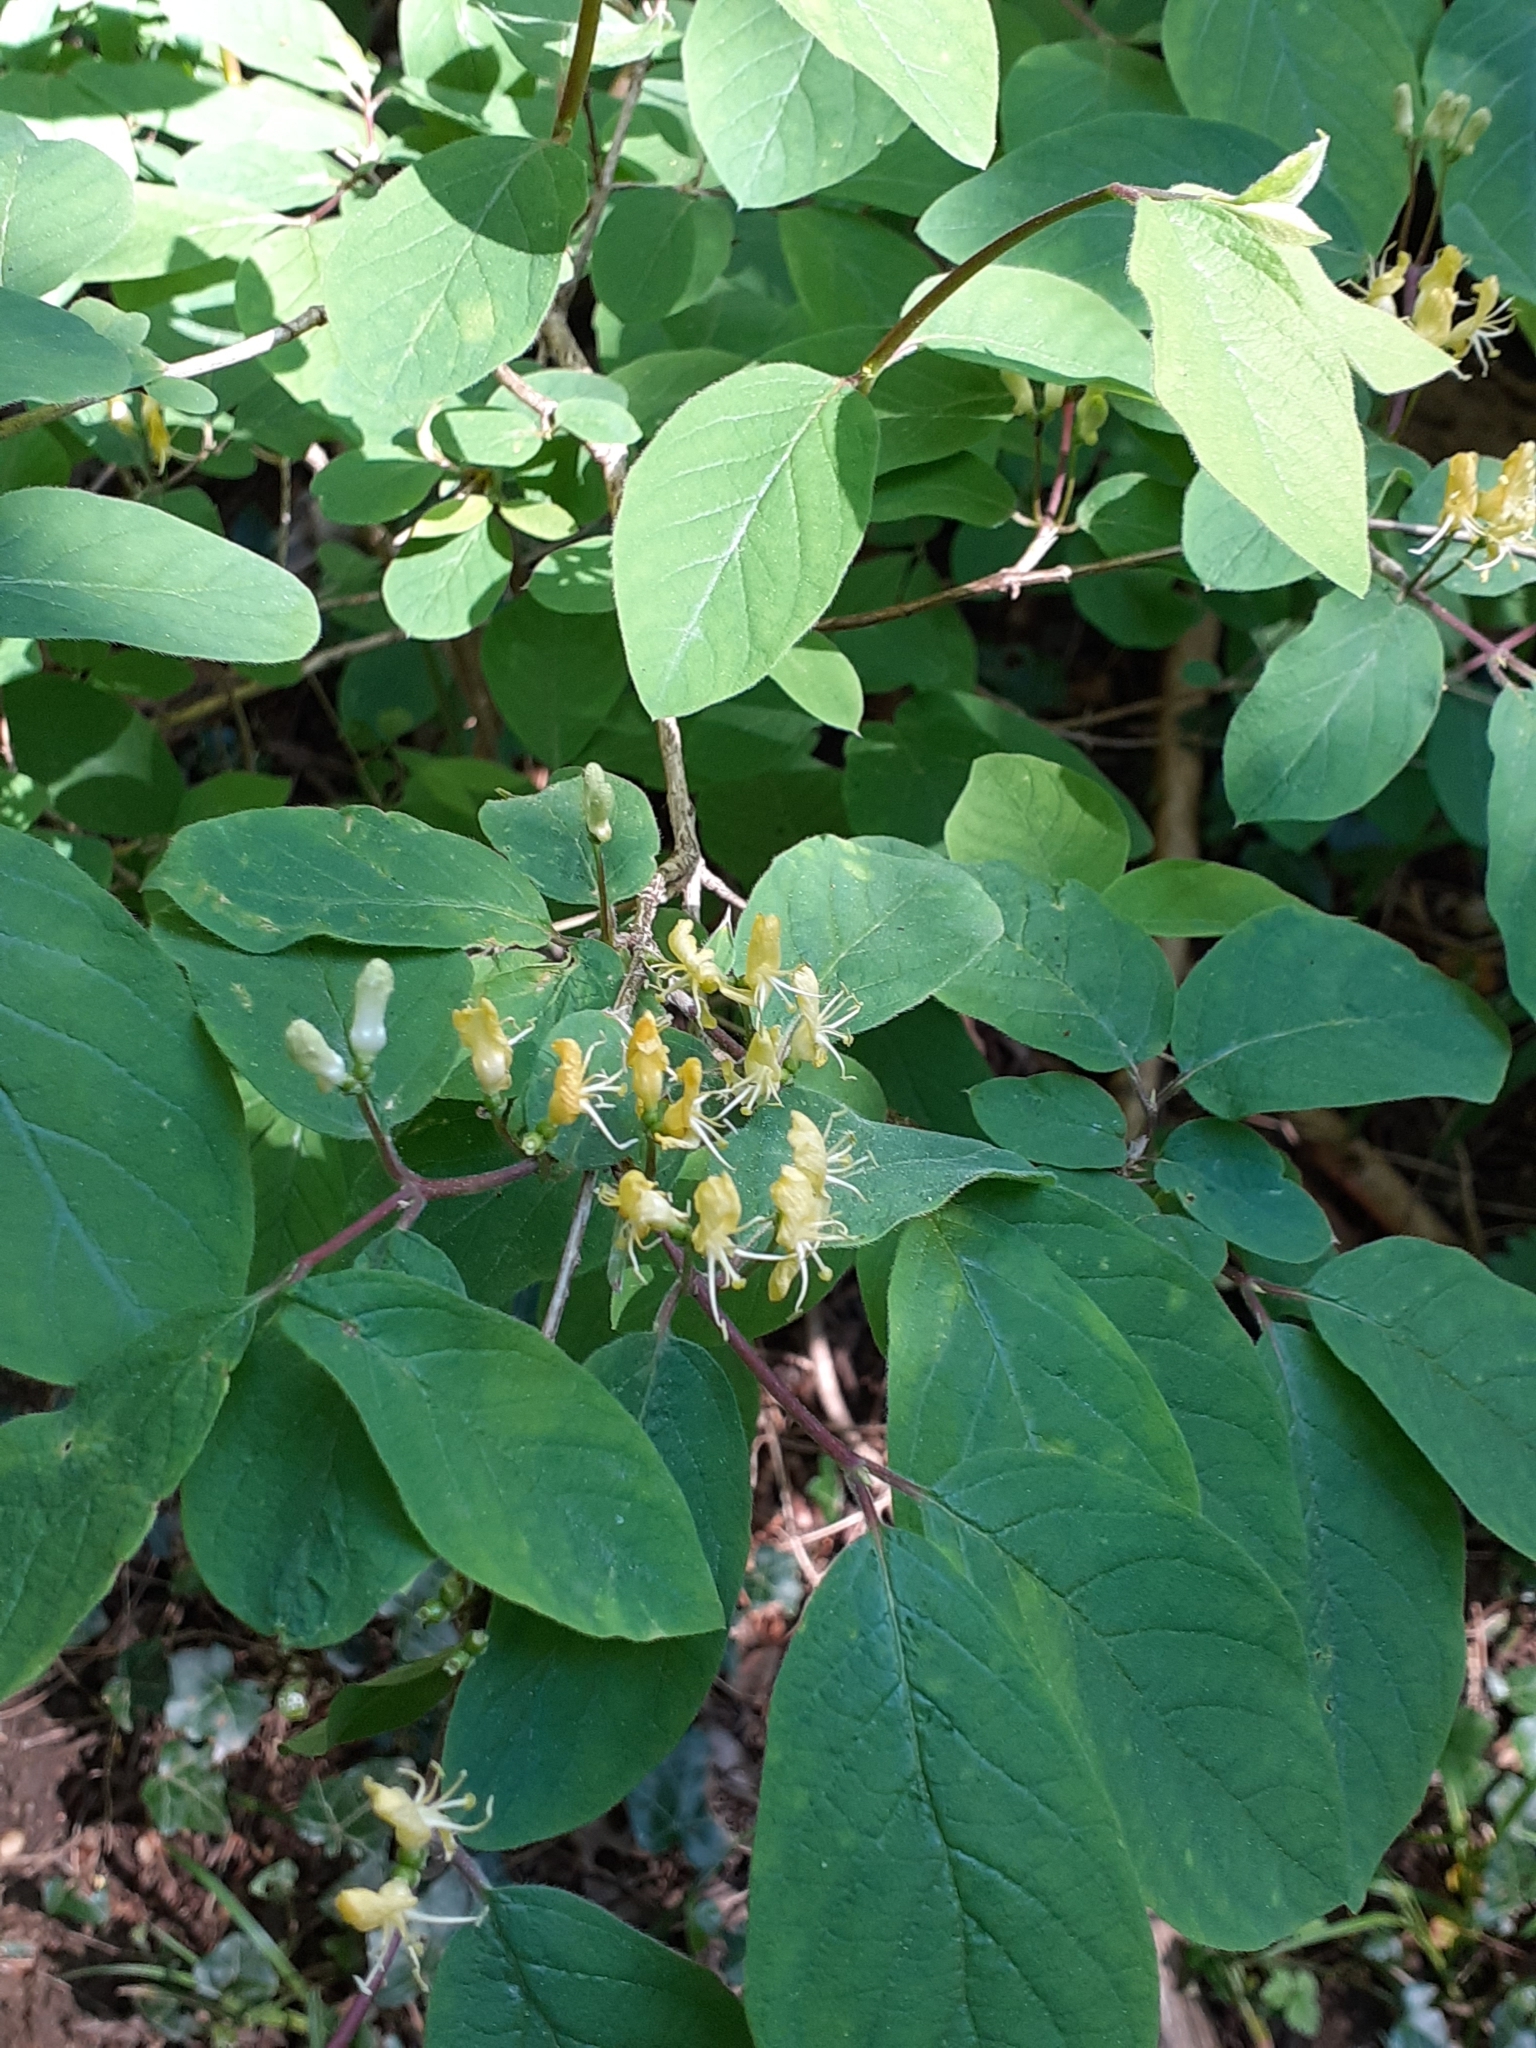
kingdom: Plantae
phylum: Tracheophyta
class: Magnoliopsida
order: Dipsacales
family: Caprifoliaceae
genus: Lonicera
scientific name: Lonicera xylosteum
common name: Fly honeysuckle
